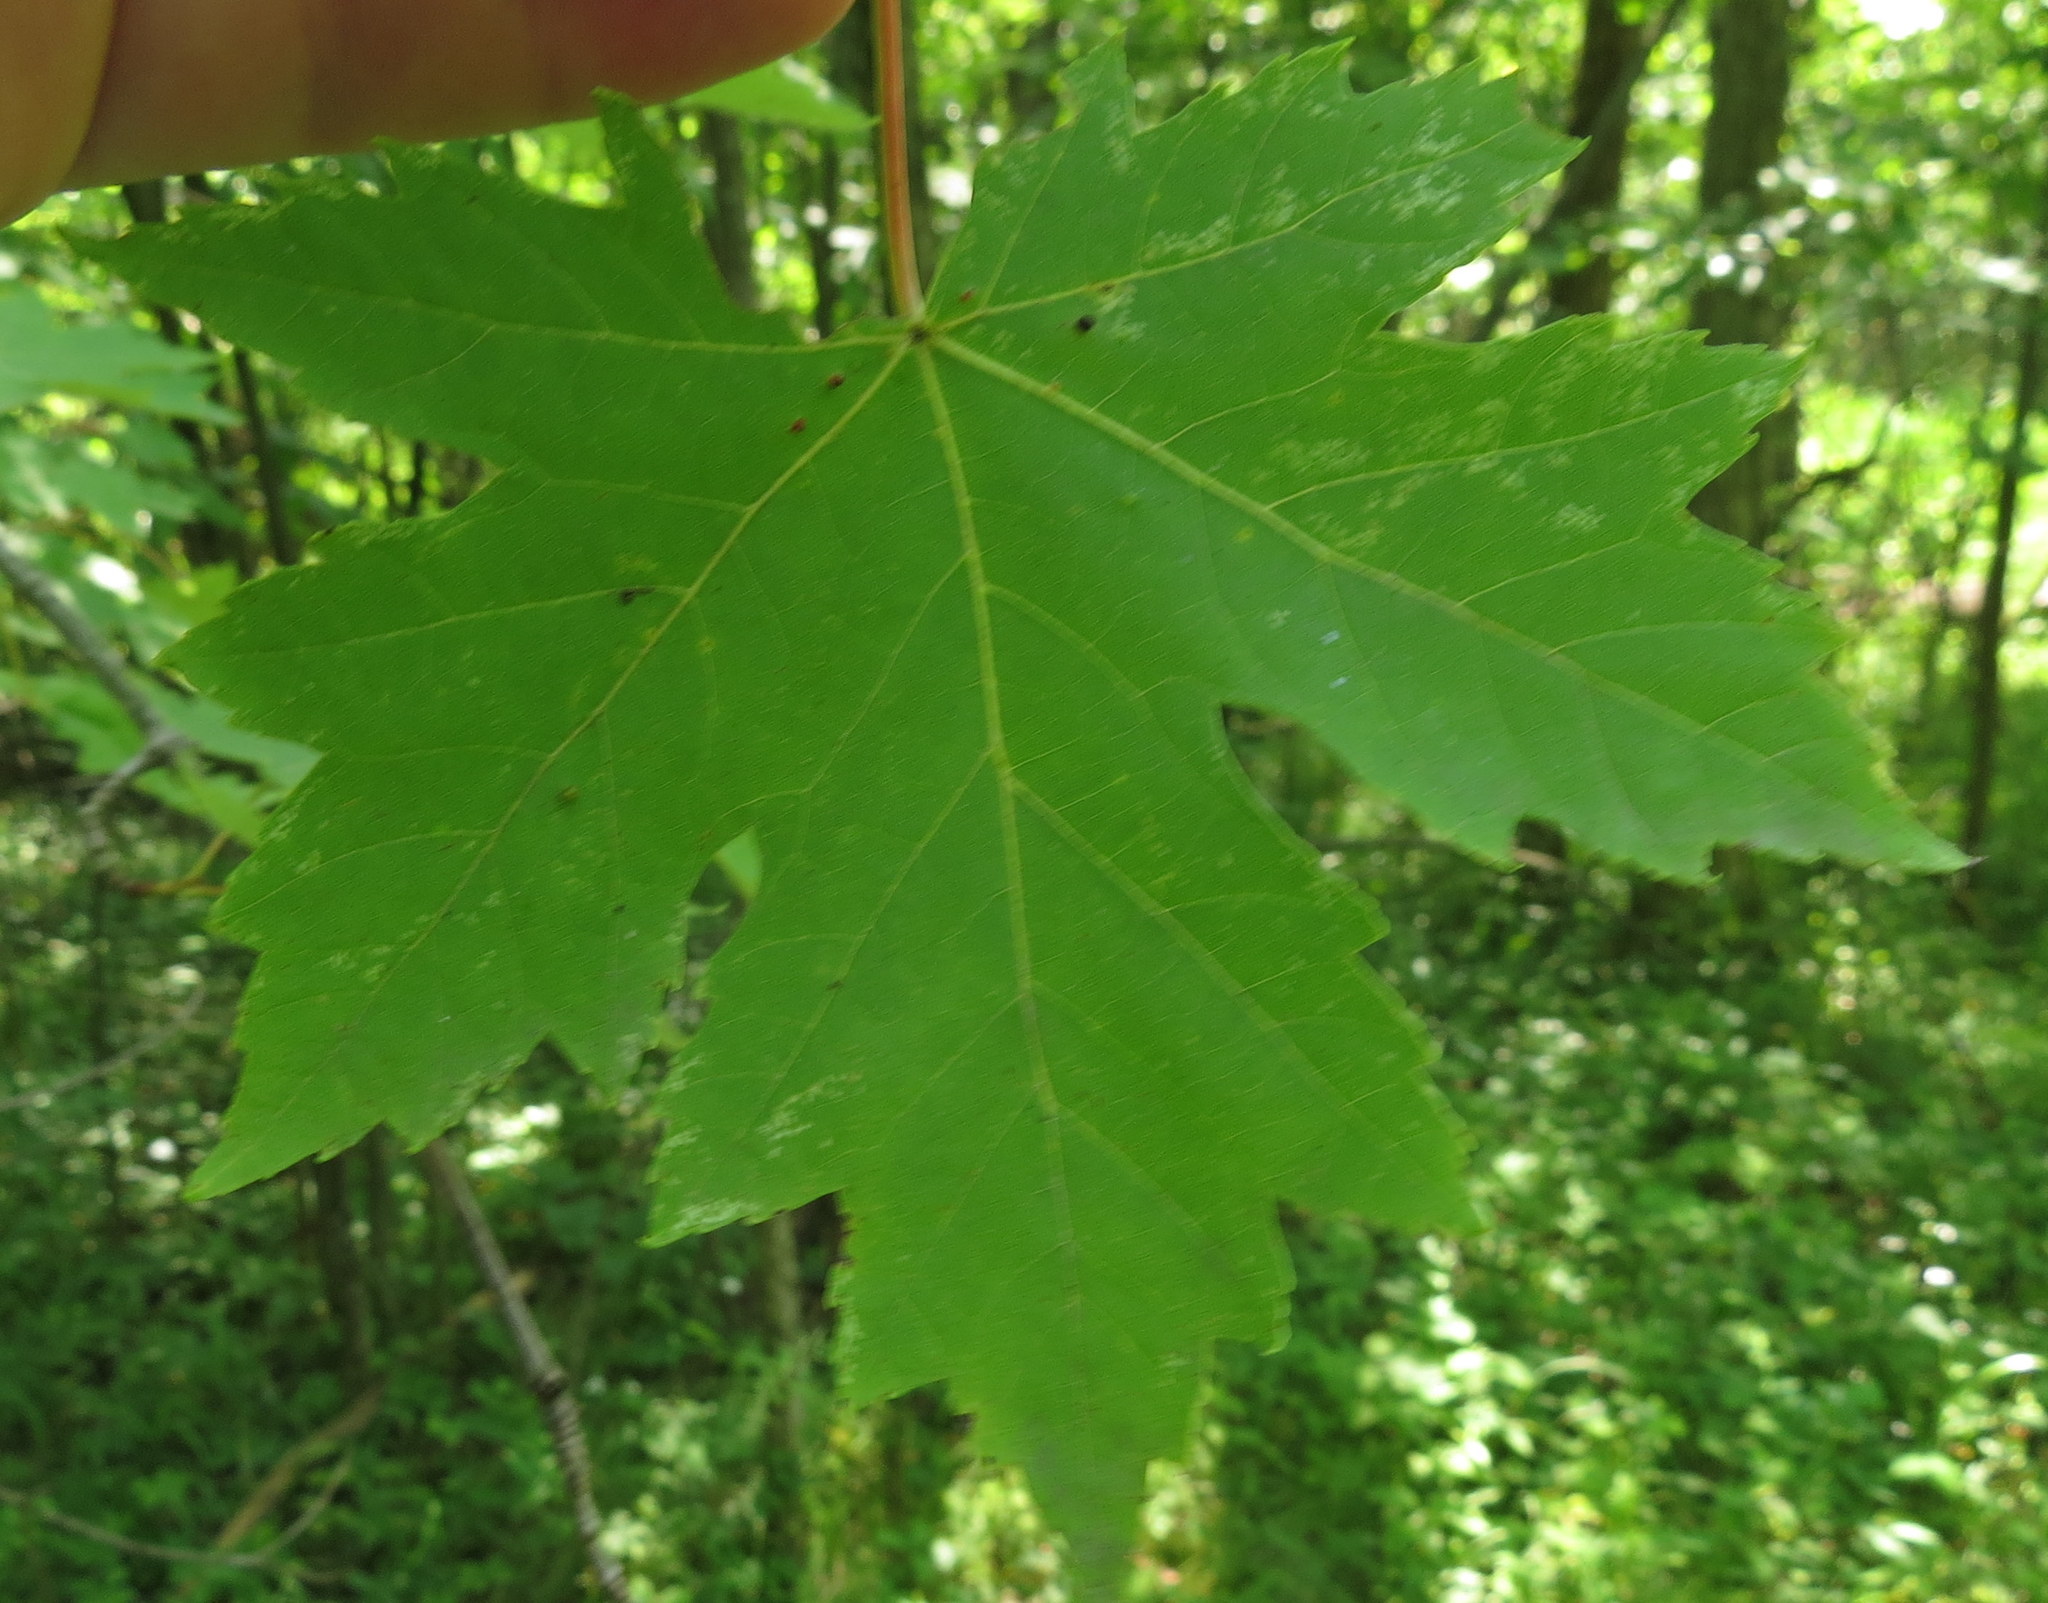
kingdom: Plantae
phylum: Tracheophyta
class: Magnoliopsida
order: Sapindales
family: Sapindaceae
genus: Acer
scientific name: Acer saccharinum
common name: Silver maple
